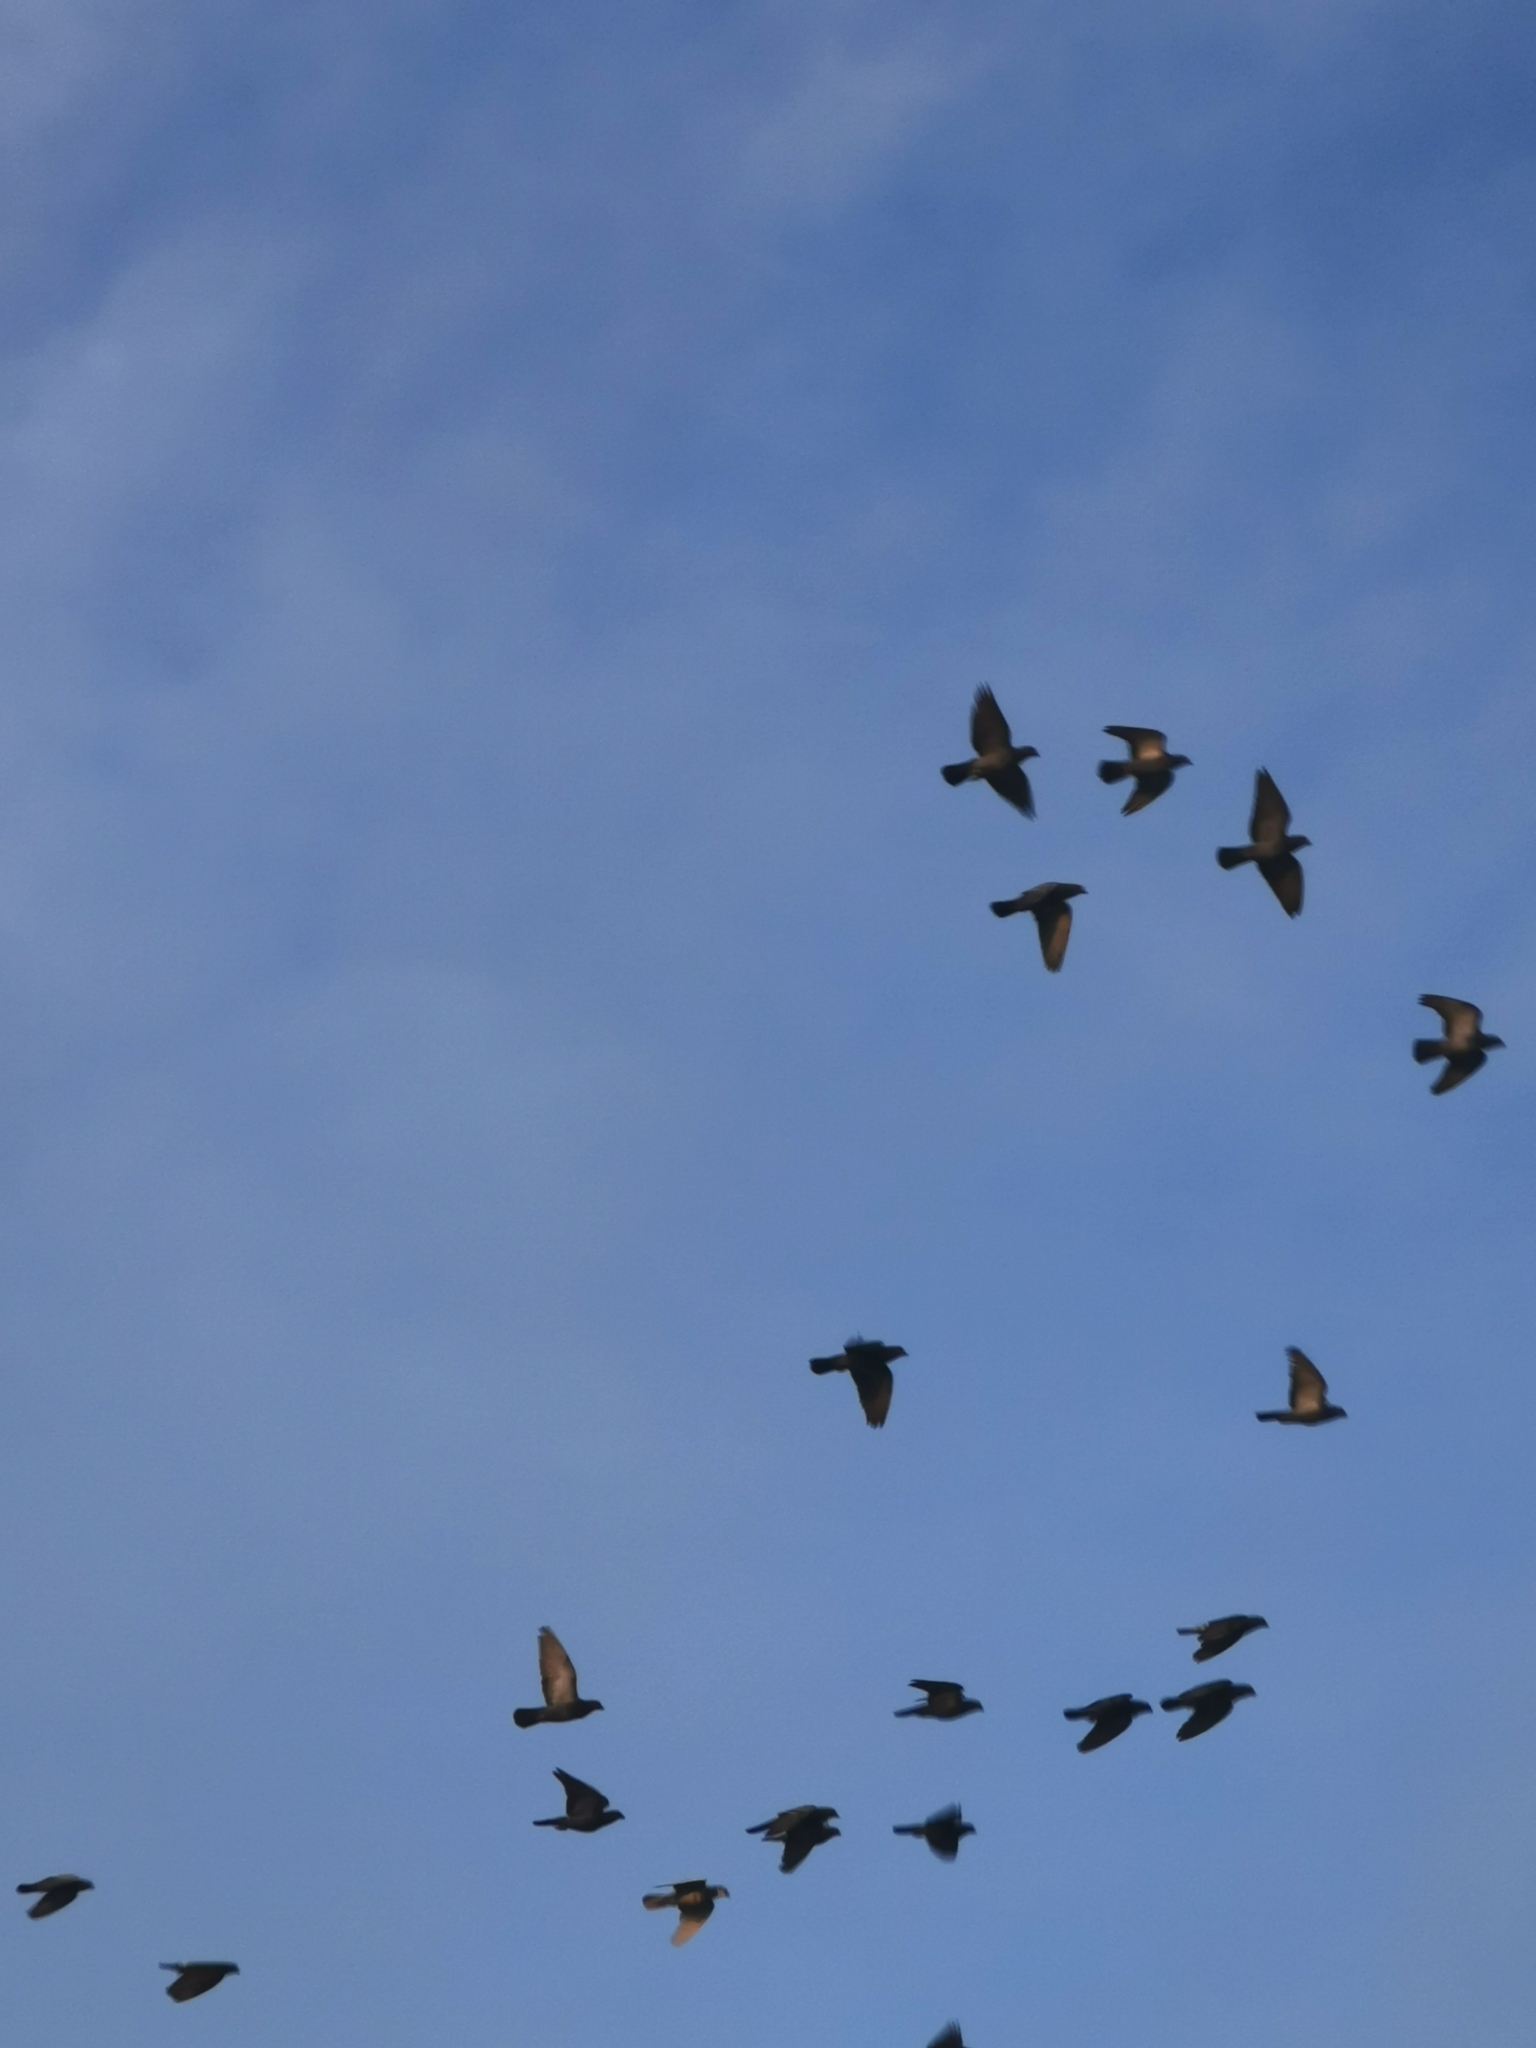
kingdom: Animalia
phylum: Chordata
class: Aves
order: Columbiformes
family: Columbidae
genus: Columba
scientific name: Columba livia
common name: Rock pigeon
